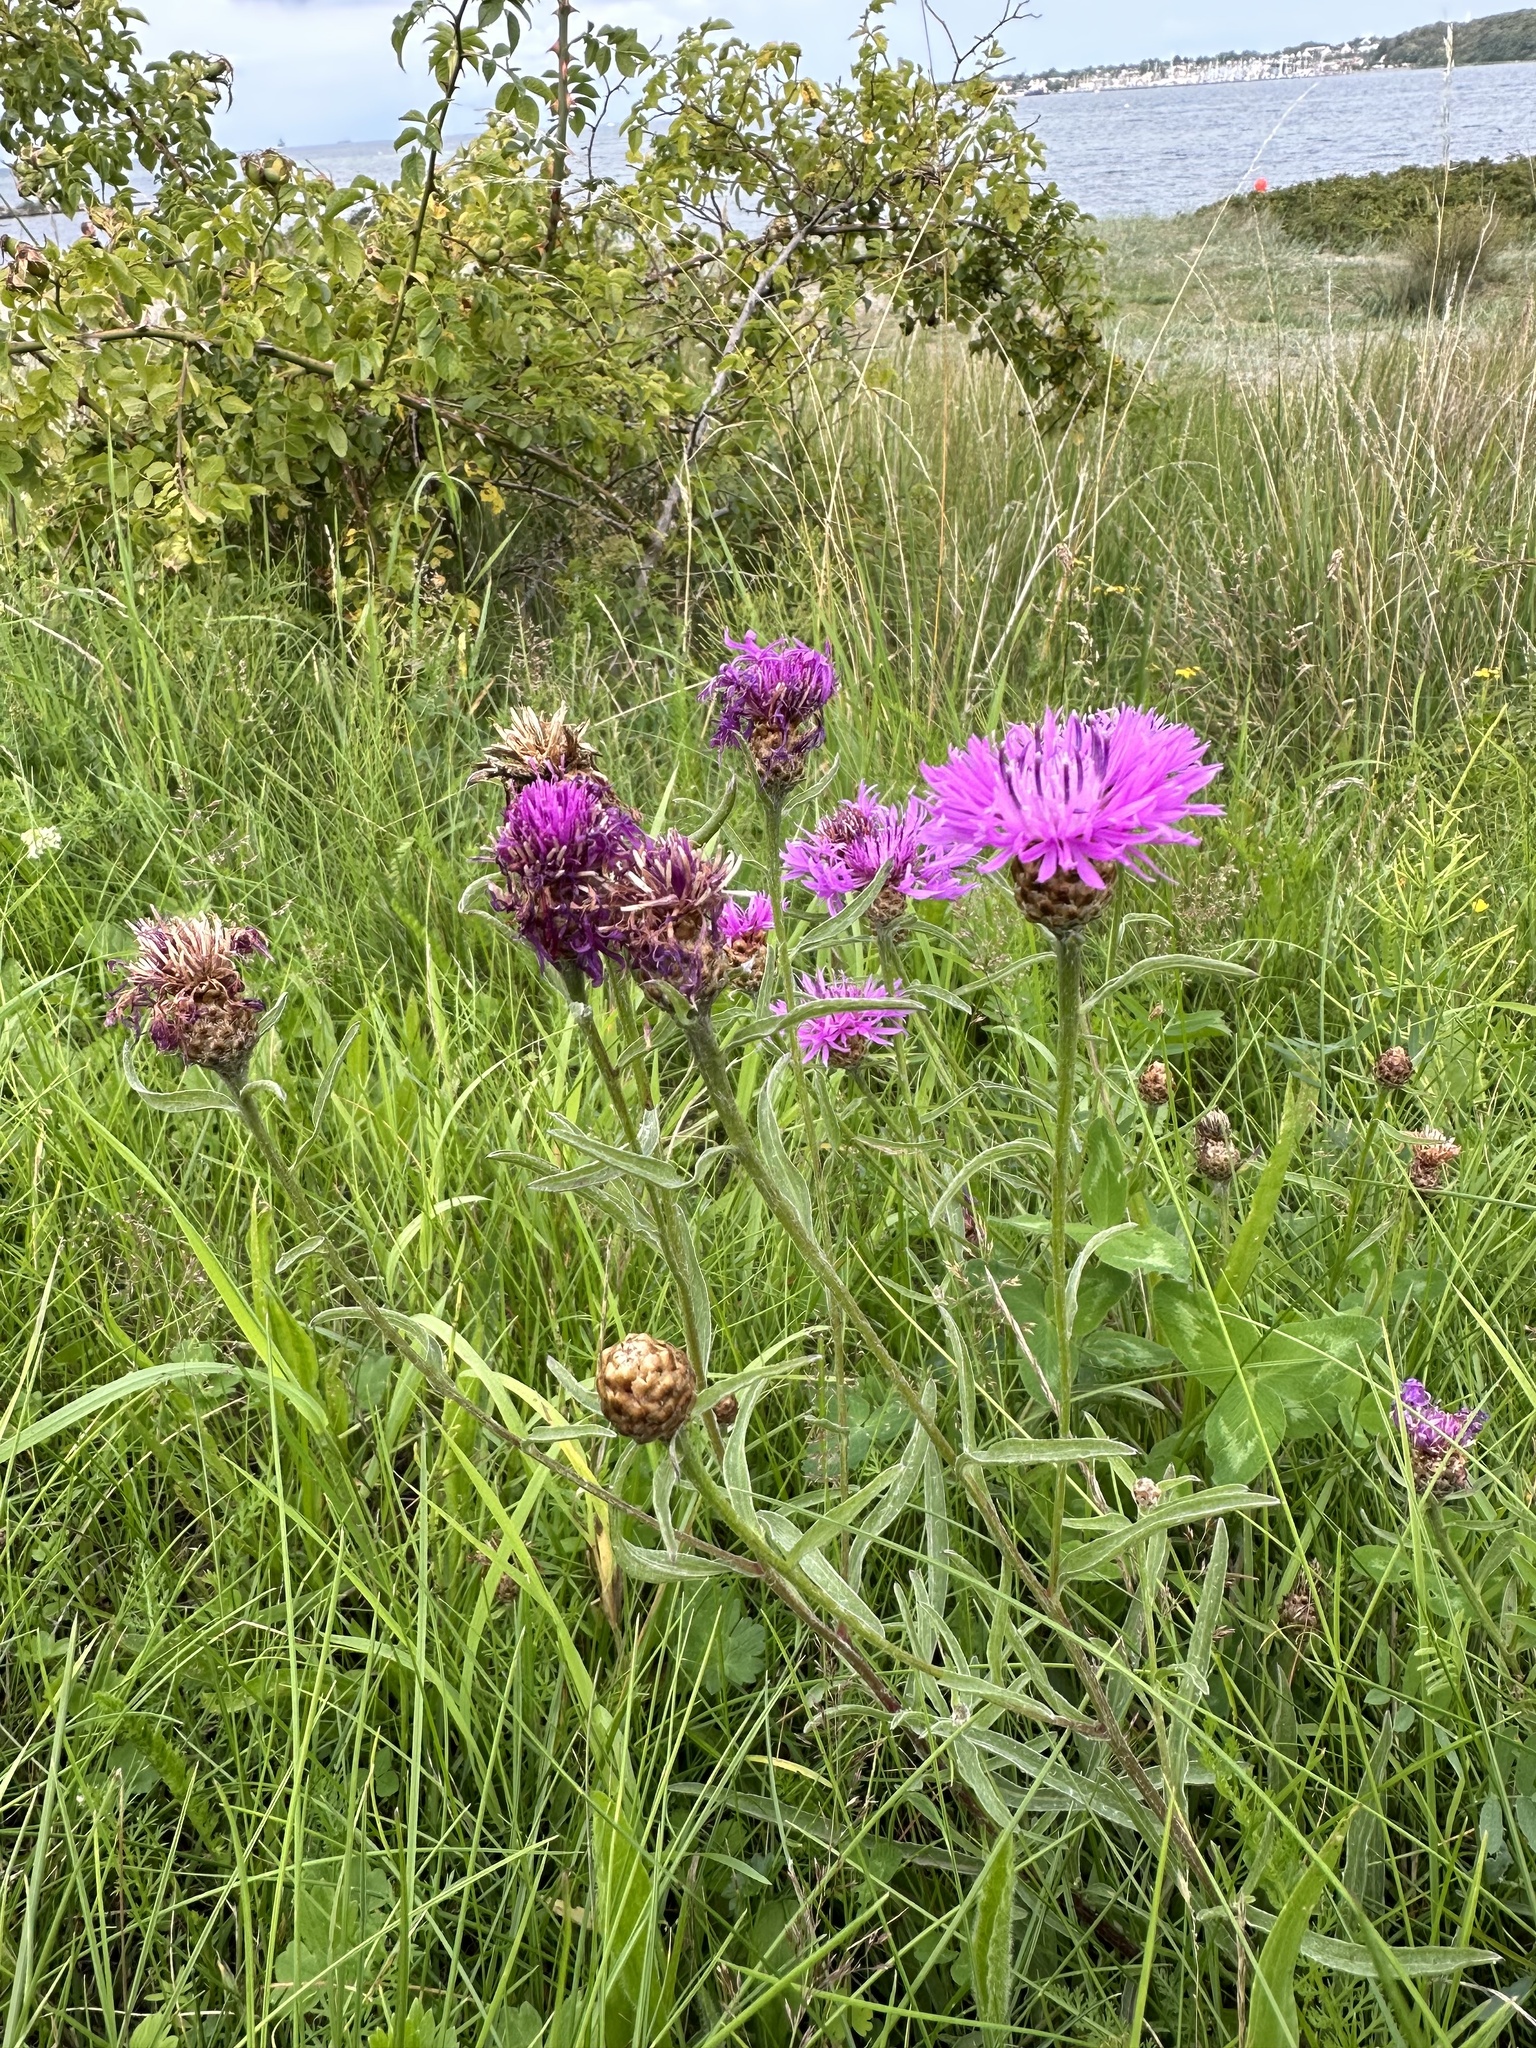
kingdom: Plantae
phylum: Tracheophyta
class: Magnoliopsida
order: Asterales
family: Asteraceae
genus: Centaurea
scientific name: Centaurea jacea
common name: Brown knapweed
